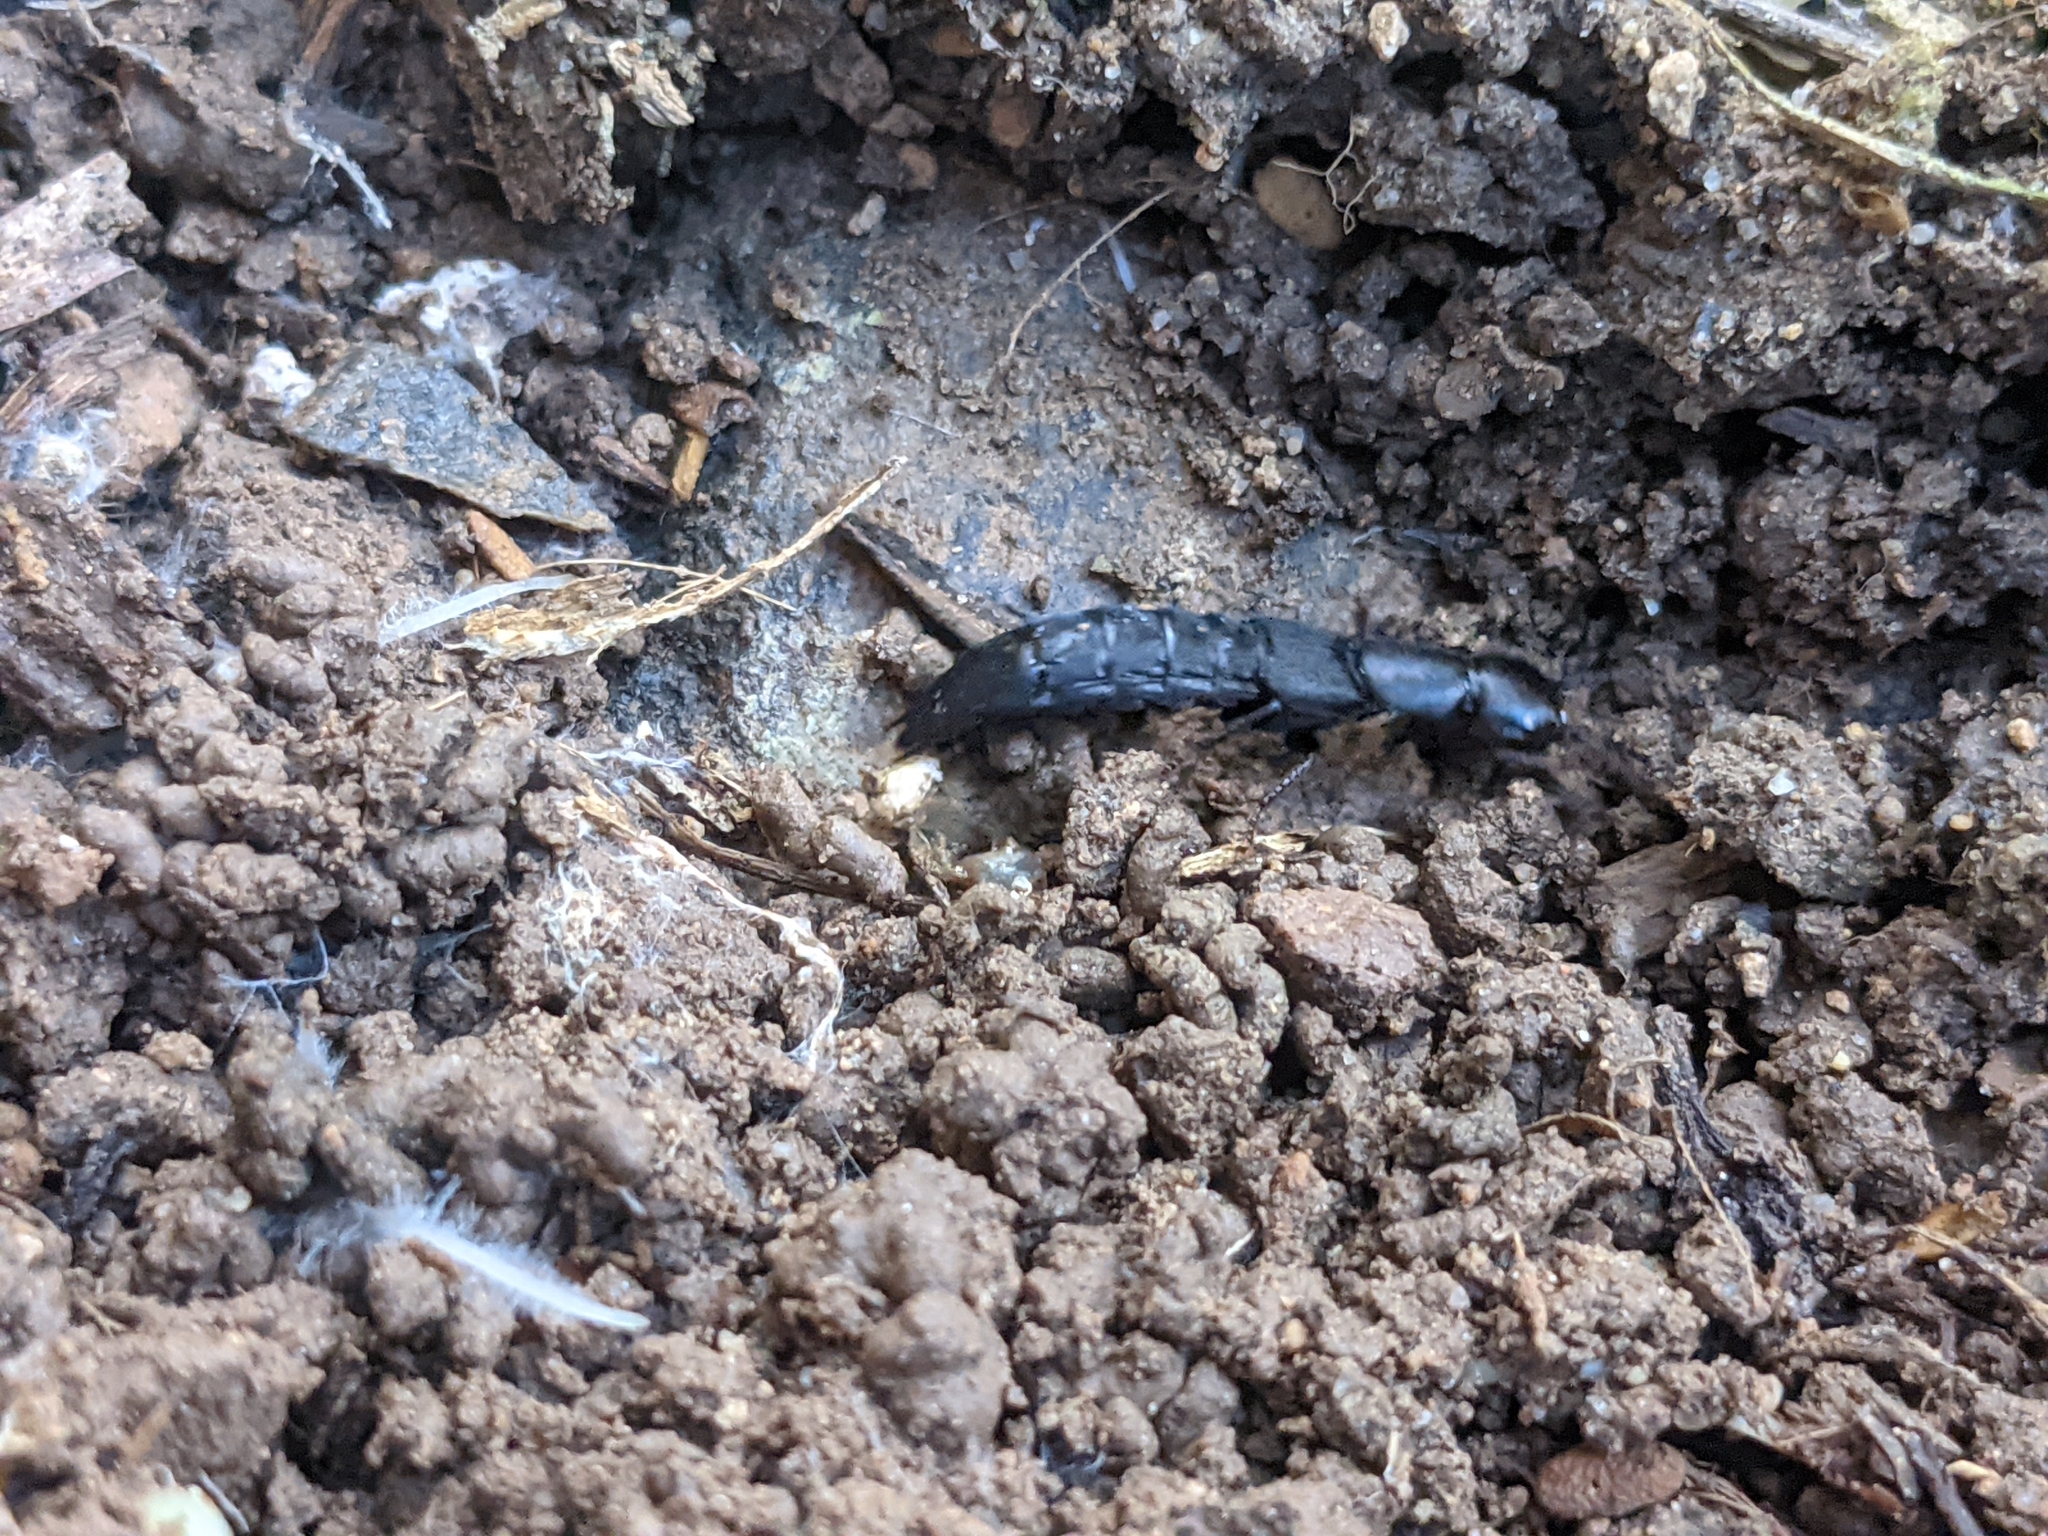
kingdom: Animalia
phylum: Arthropoda
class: Insecta
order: Coleoptera
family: Staphylinidae
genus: Ocypus
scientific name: Ocypus aethiops
